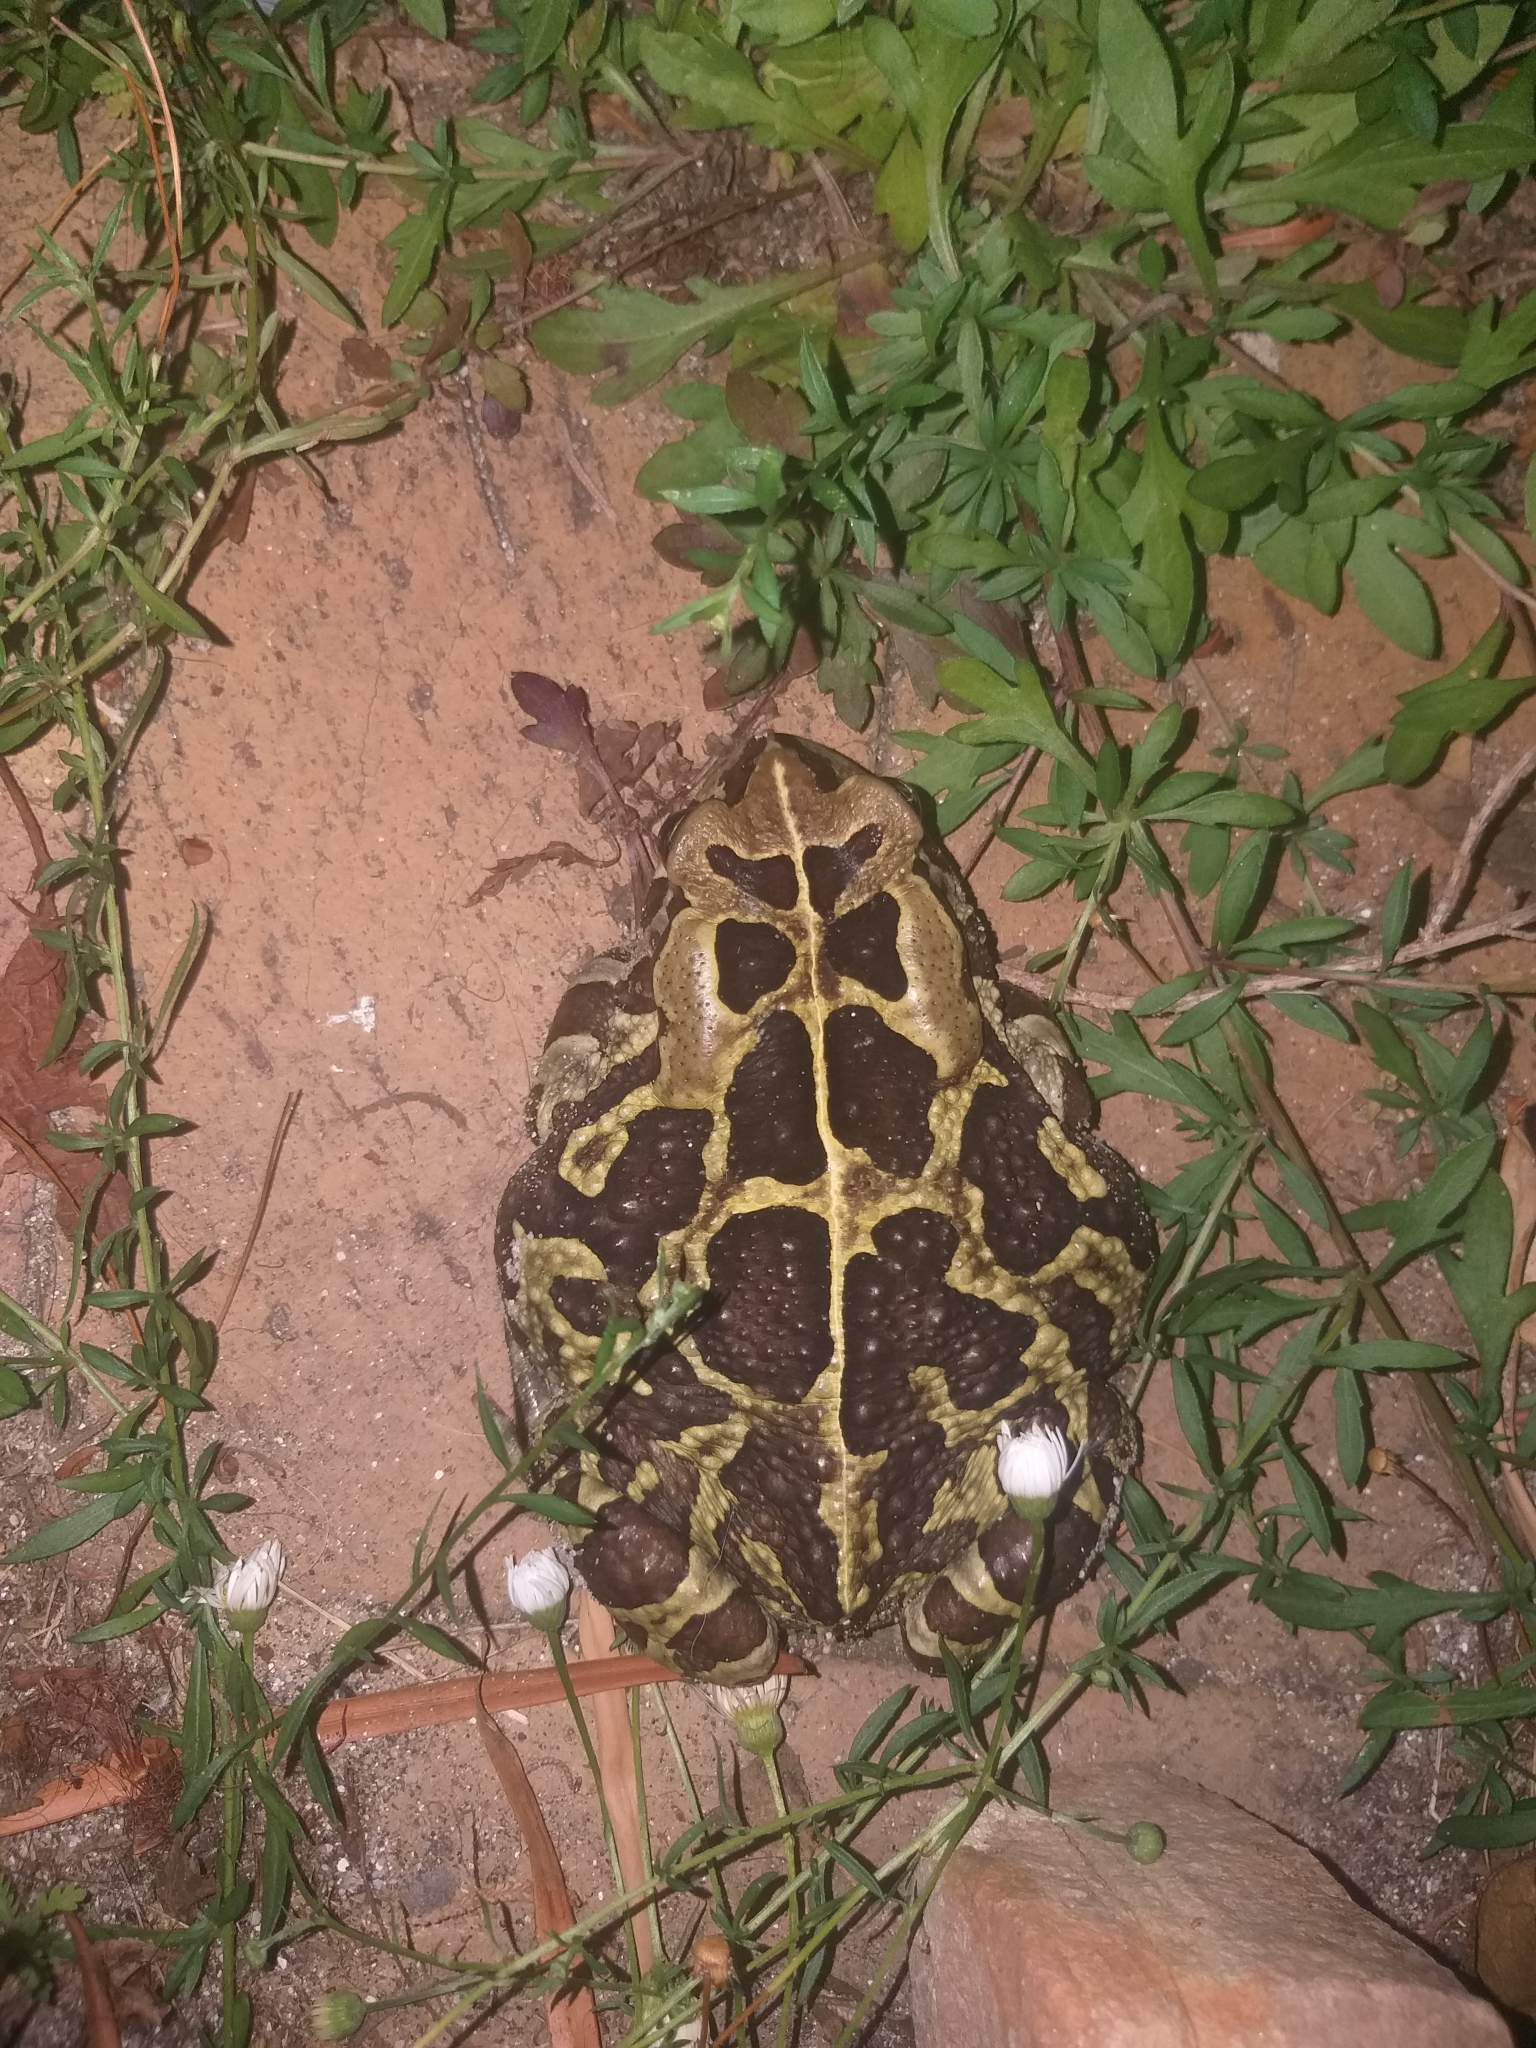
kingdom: Animalia
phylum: Chordata
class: Amphibia
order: Anura
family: Bufonidae
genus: Sclerophrys
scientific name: Sclerophrys pantherina
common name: Panther toad
